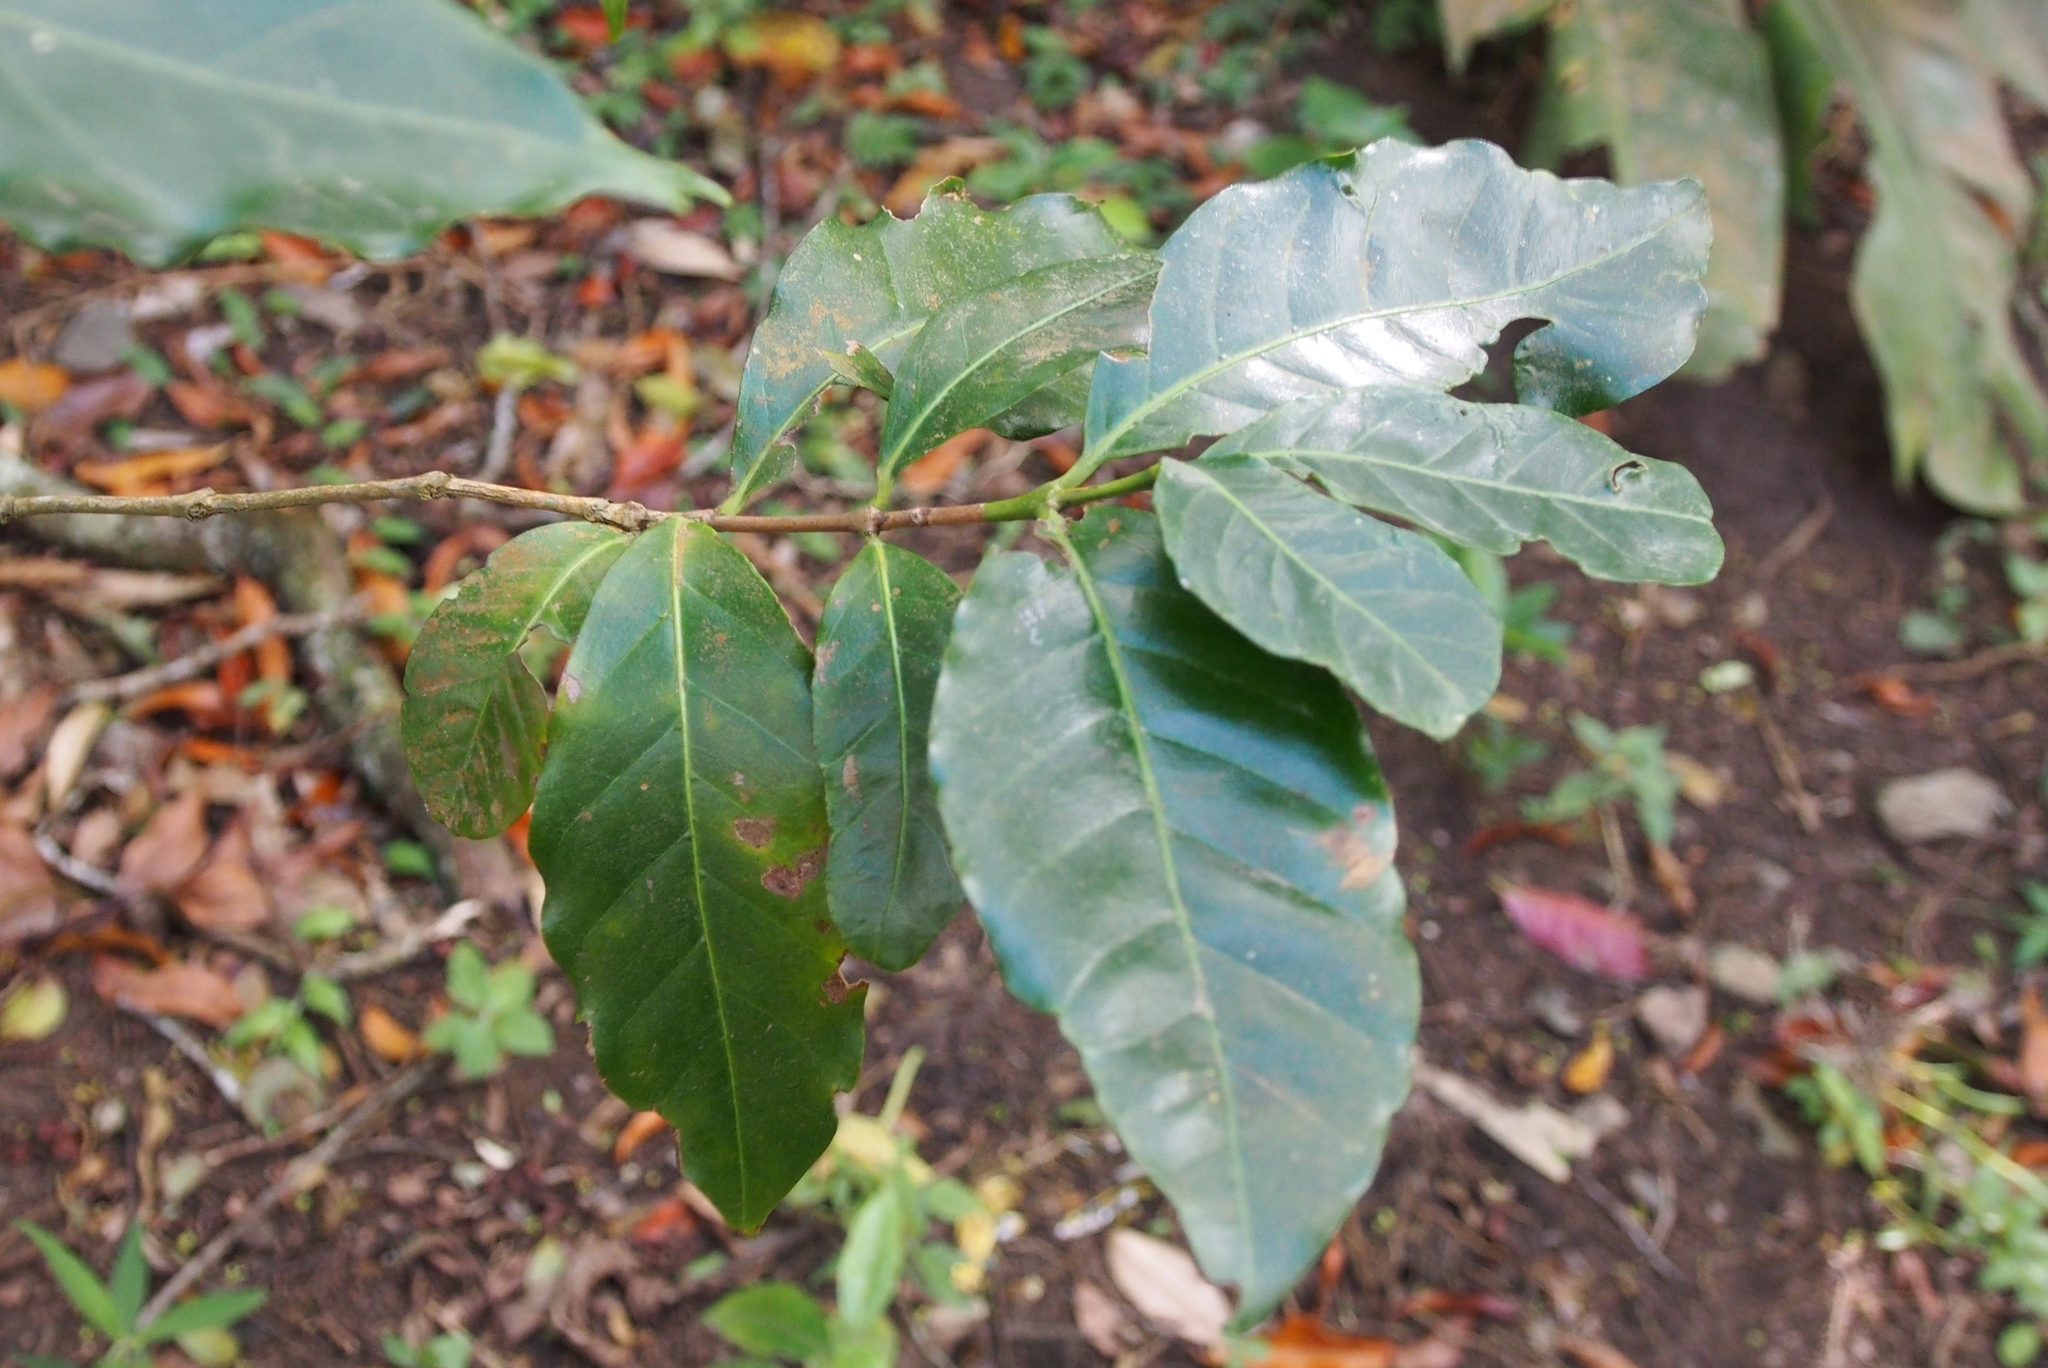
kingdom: Plantae
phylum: Tracheophyta
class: Magnoliopsida
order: Gentianales
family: Rubiaceae
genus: Coffea
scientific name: Coffea arabica
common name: Coffee
